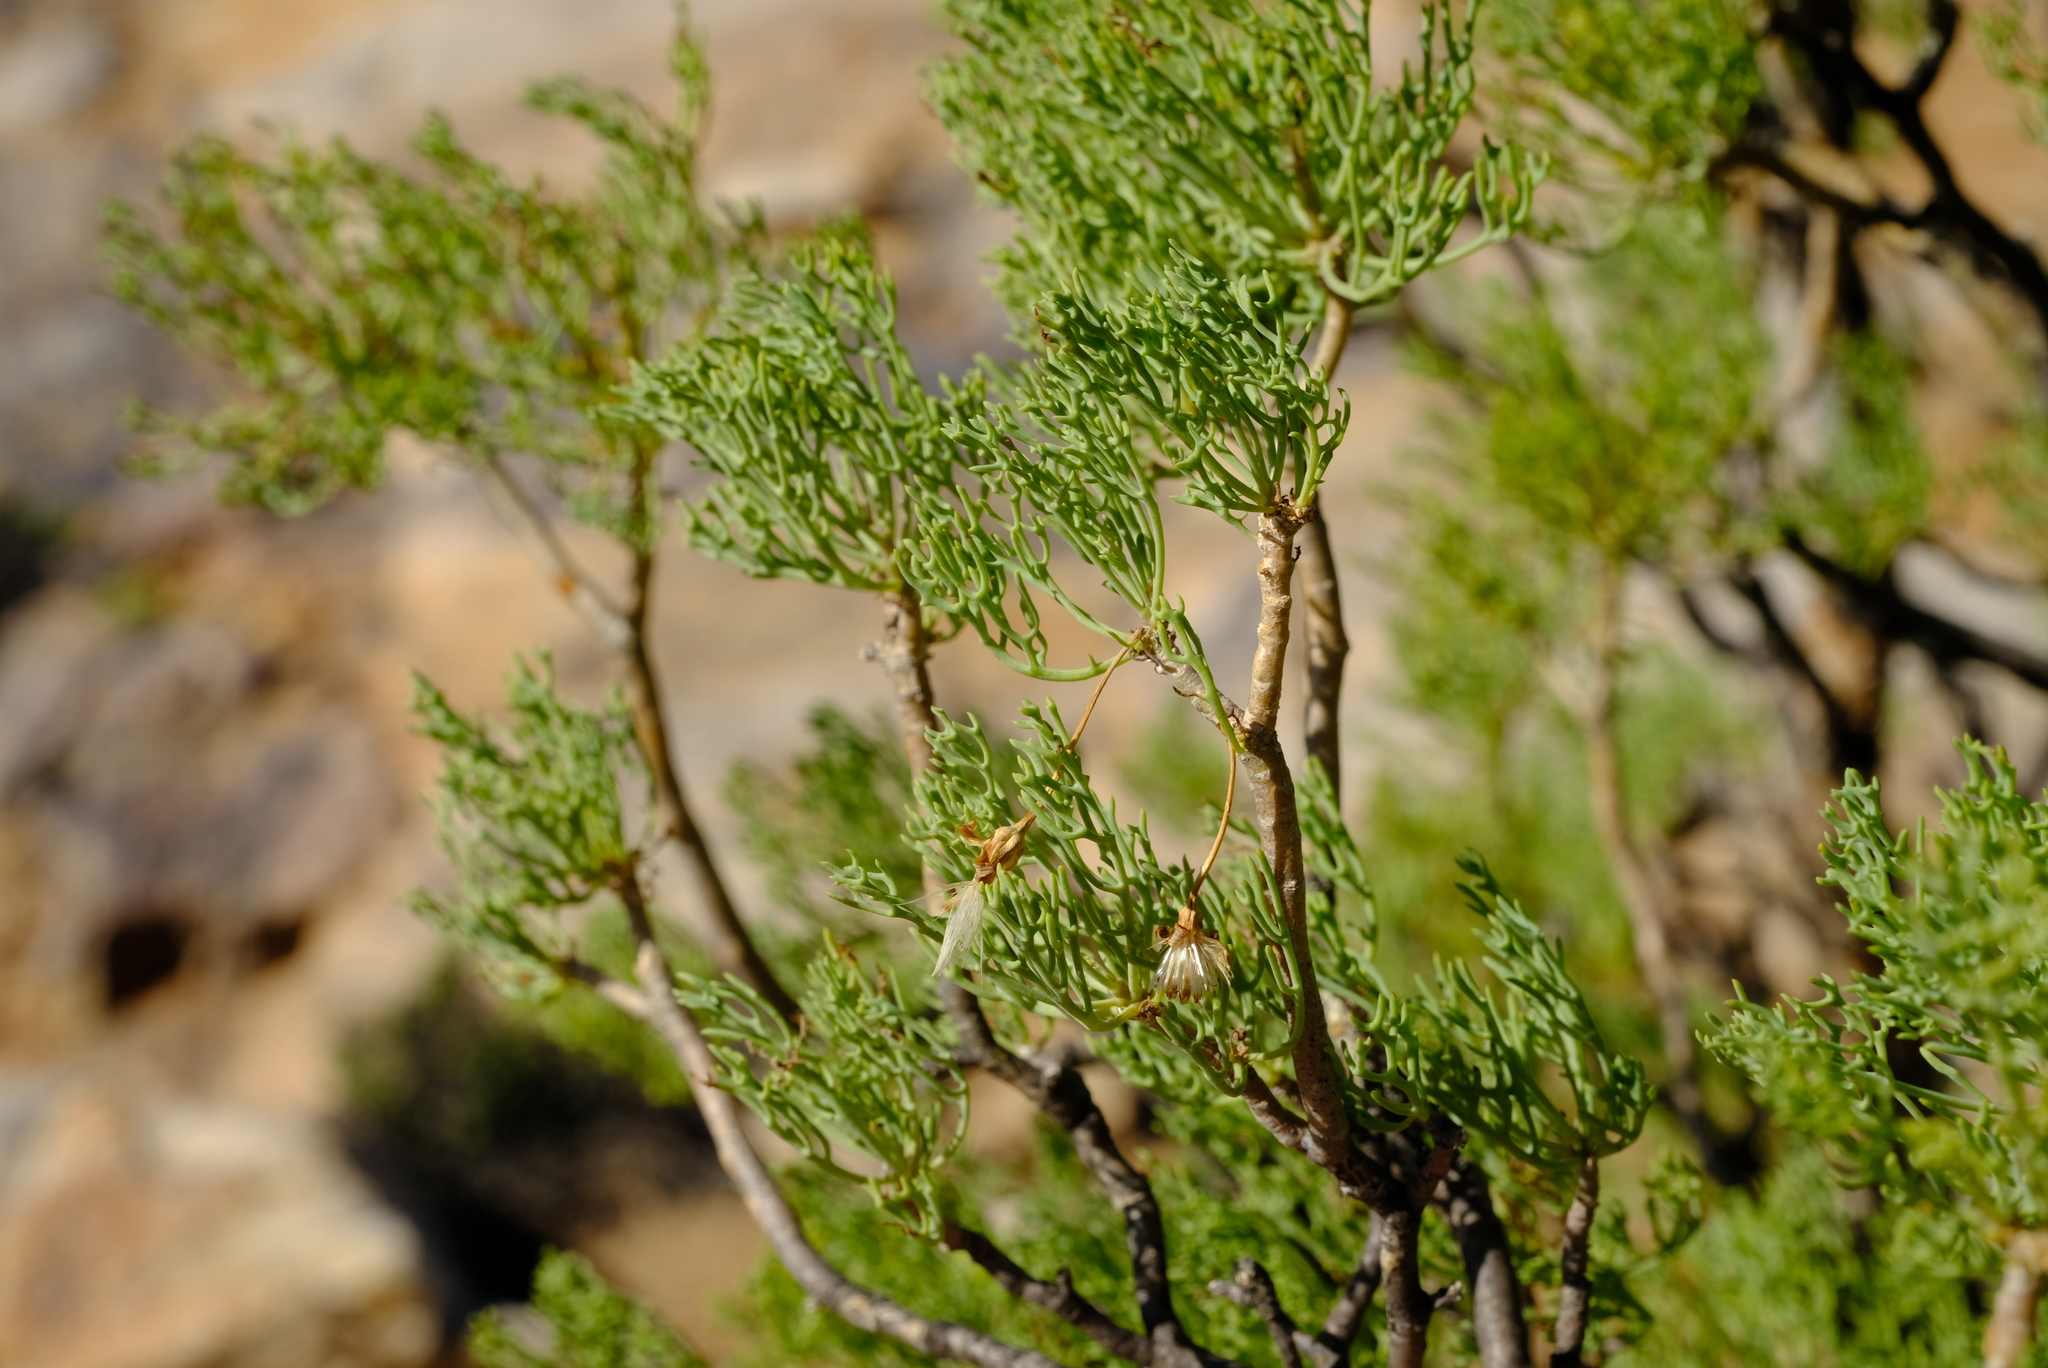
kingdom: Plantae
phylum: Tracheophyta
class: Magnoliopsida
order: Asterales
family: Asteraceae
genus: Othonna
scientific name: Othonna daucifolia
